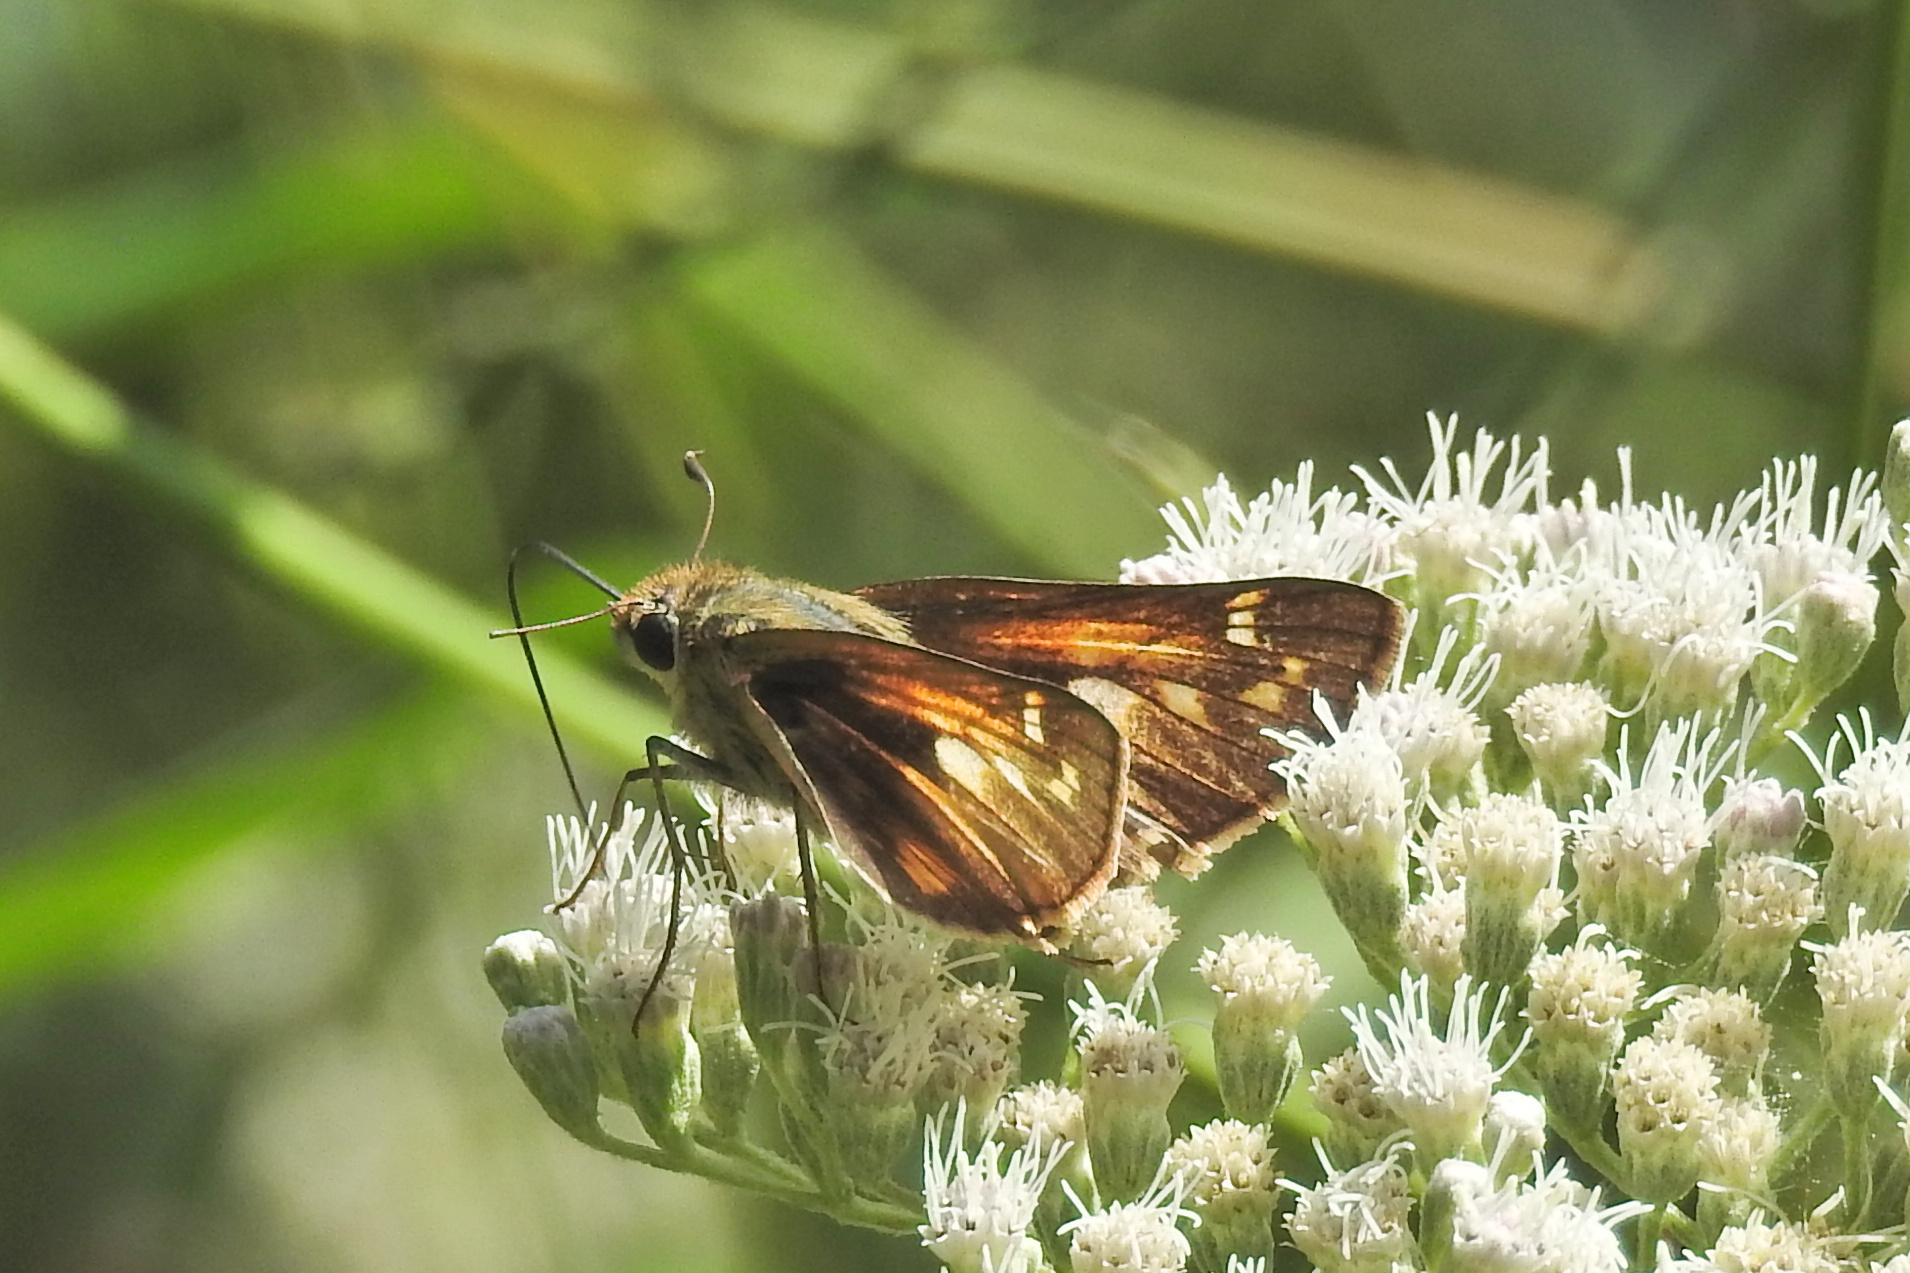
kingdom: Animalia
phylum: Arthropoda
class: Insecta
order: Lepidoptera
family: Hesperiidae
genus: Atalopedes
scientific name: Atalopedes
